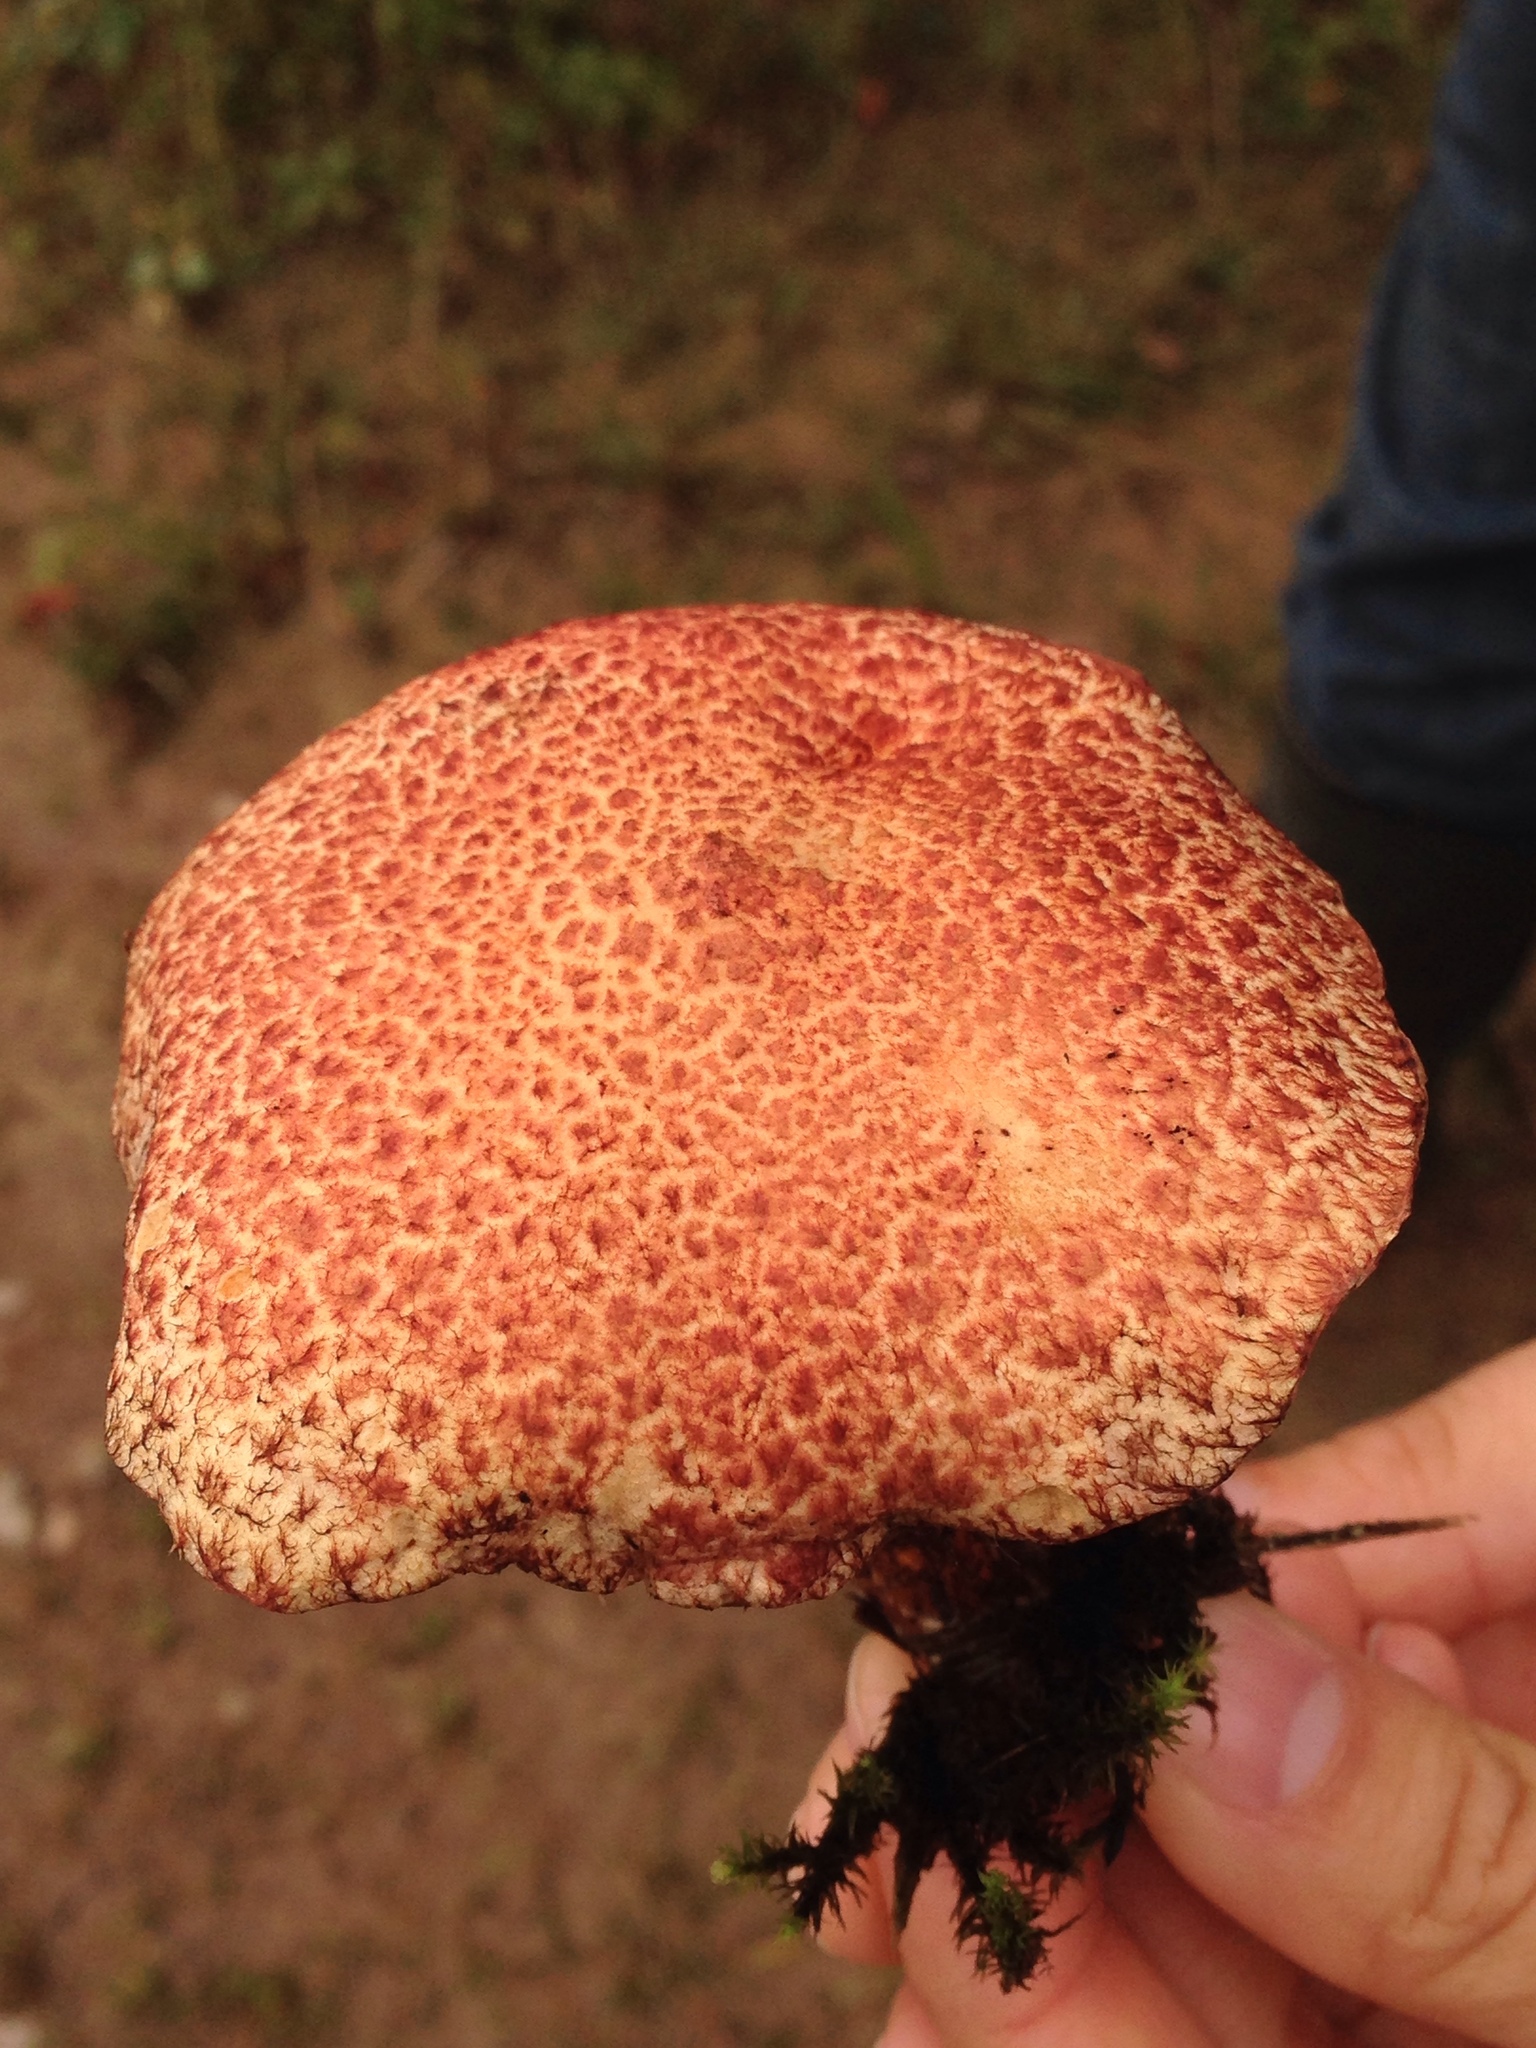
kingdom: Fungi
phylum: Basidiomycota
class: Agaricomycetes
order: Boletales
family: Suillaceae
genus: Suillus
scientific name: Suillus spraguei
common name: Painted suillus
